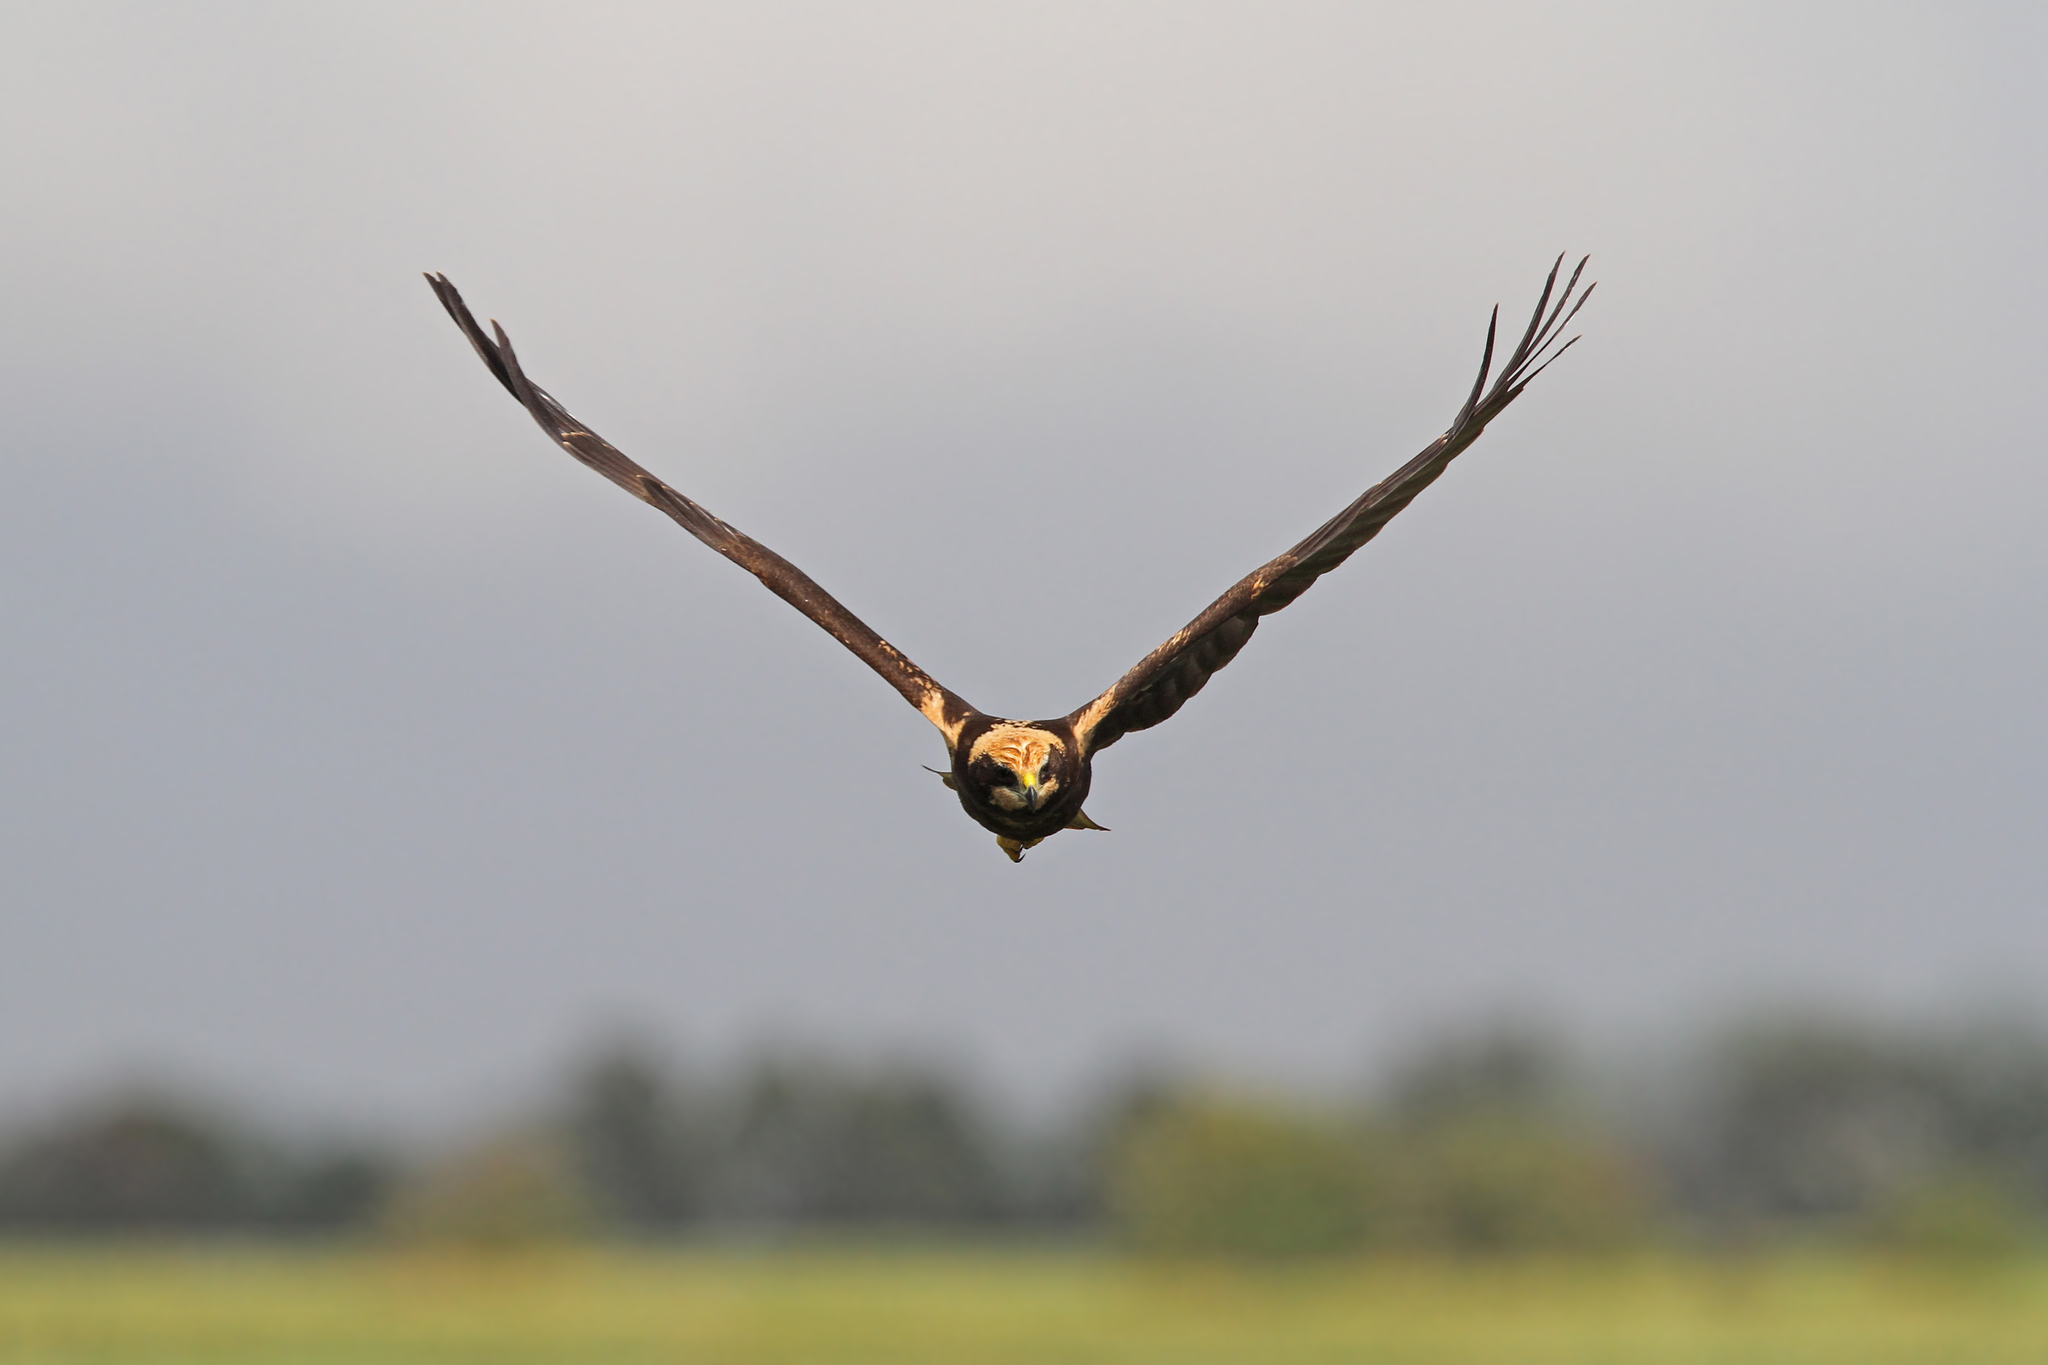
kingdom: Animalia
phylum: Chordata
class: Aves
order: Accipitriformes
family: Accipitridae
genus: Circus
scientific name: Circus aeruginosus
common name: Western marsh harrier
